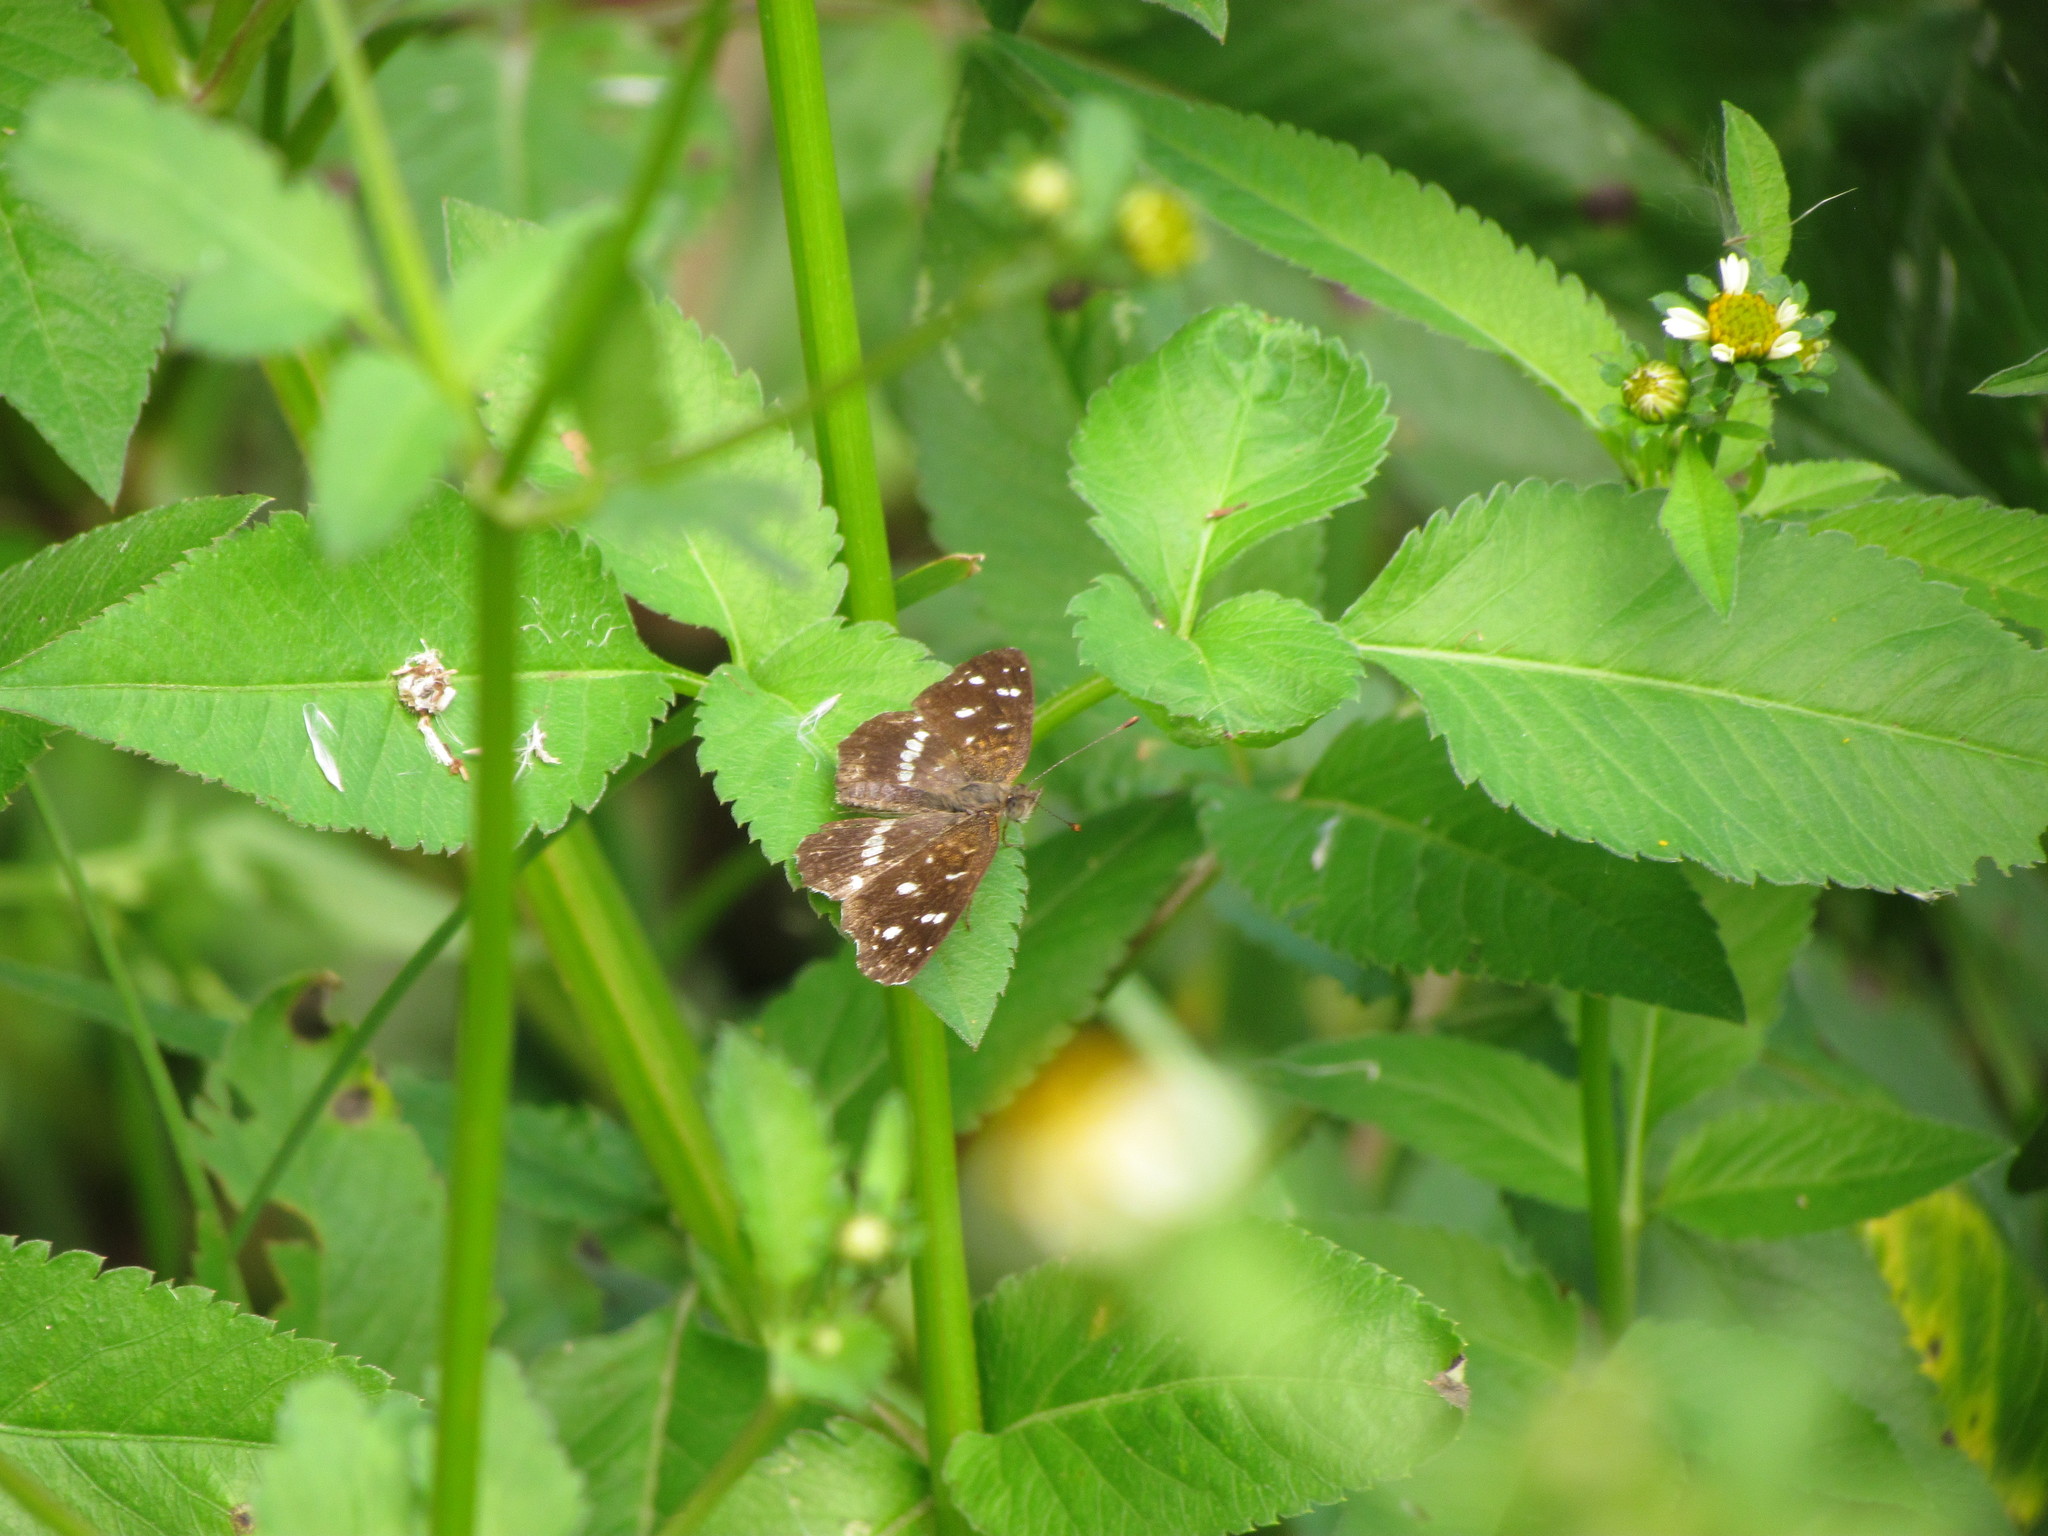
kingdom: Animalia
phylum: Arthropoda
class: Insecta
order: Lepidoptera
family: Nymphalidae
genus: Ortilia
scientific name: Ortilia ithra
